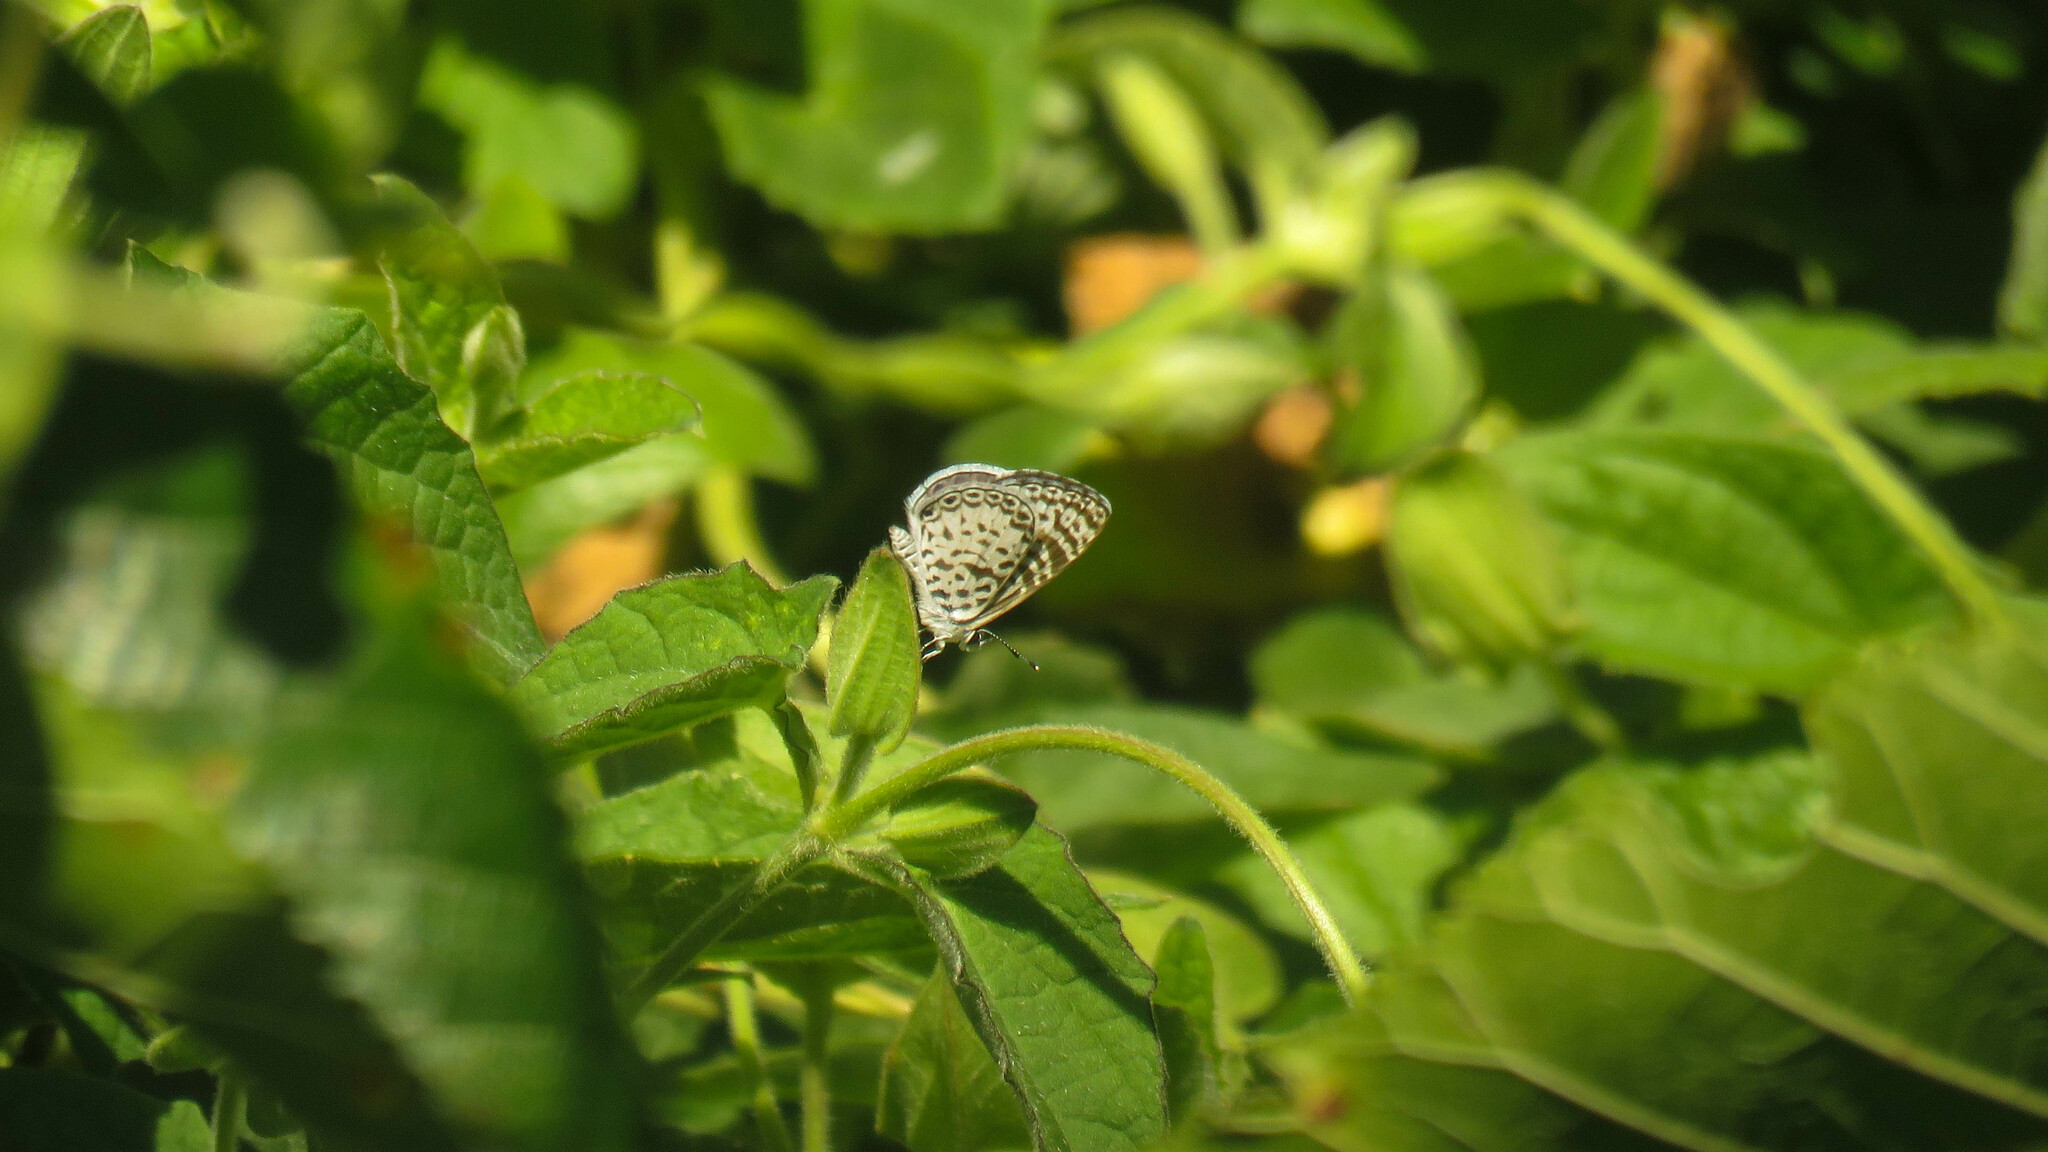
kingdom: Animalia
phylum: Arthropoda
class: Insecta
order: Lepidoptera
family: Lycaenidae
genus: Leptotes
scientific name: Leptotes cassius
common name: Cassius blue
